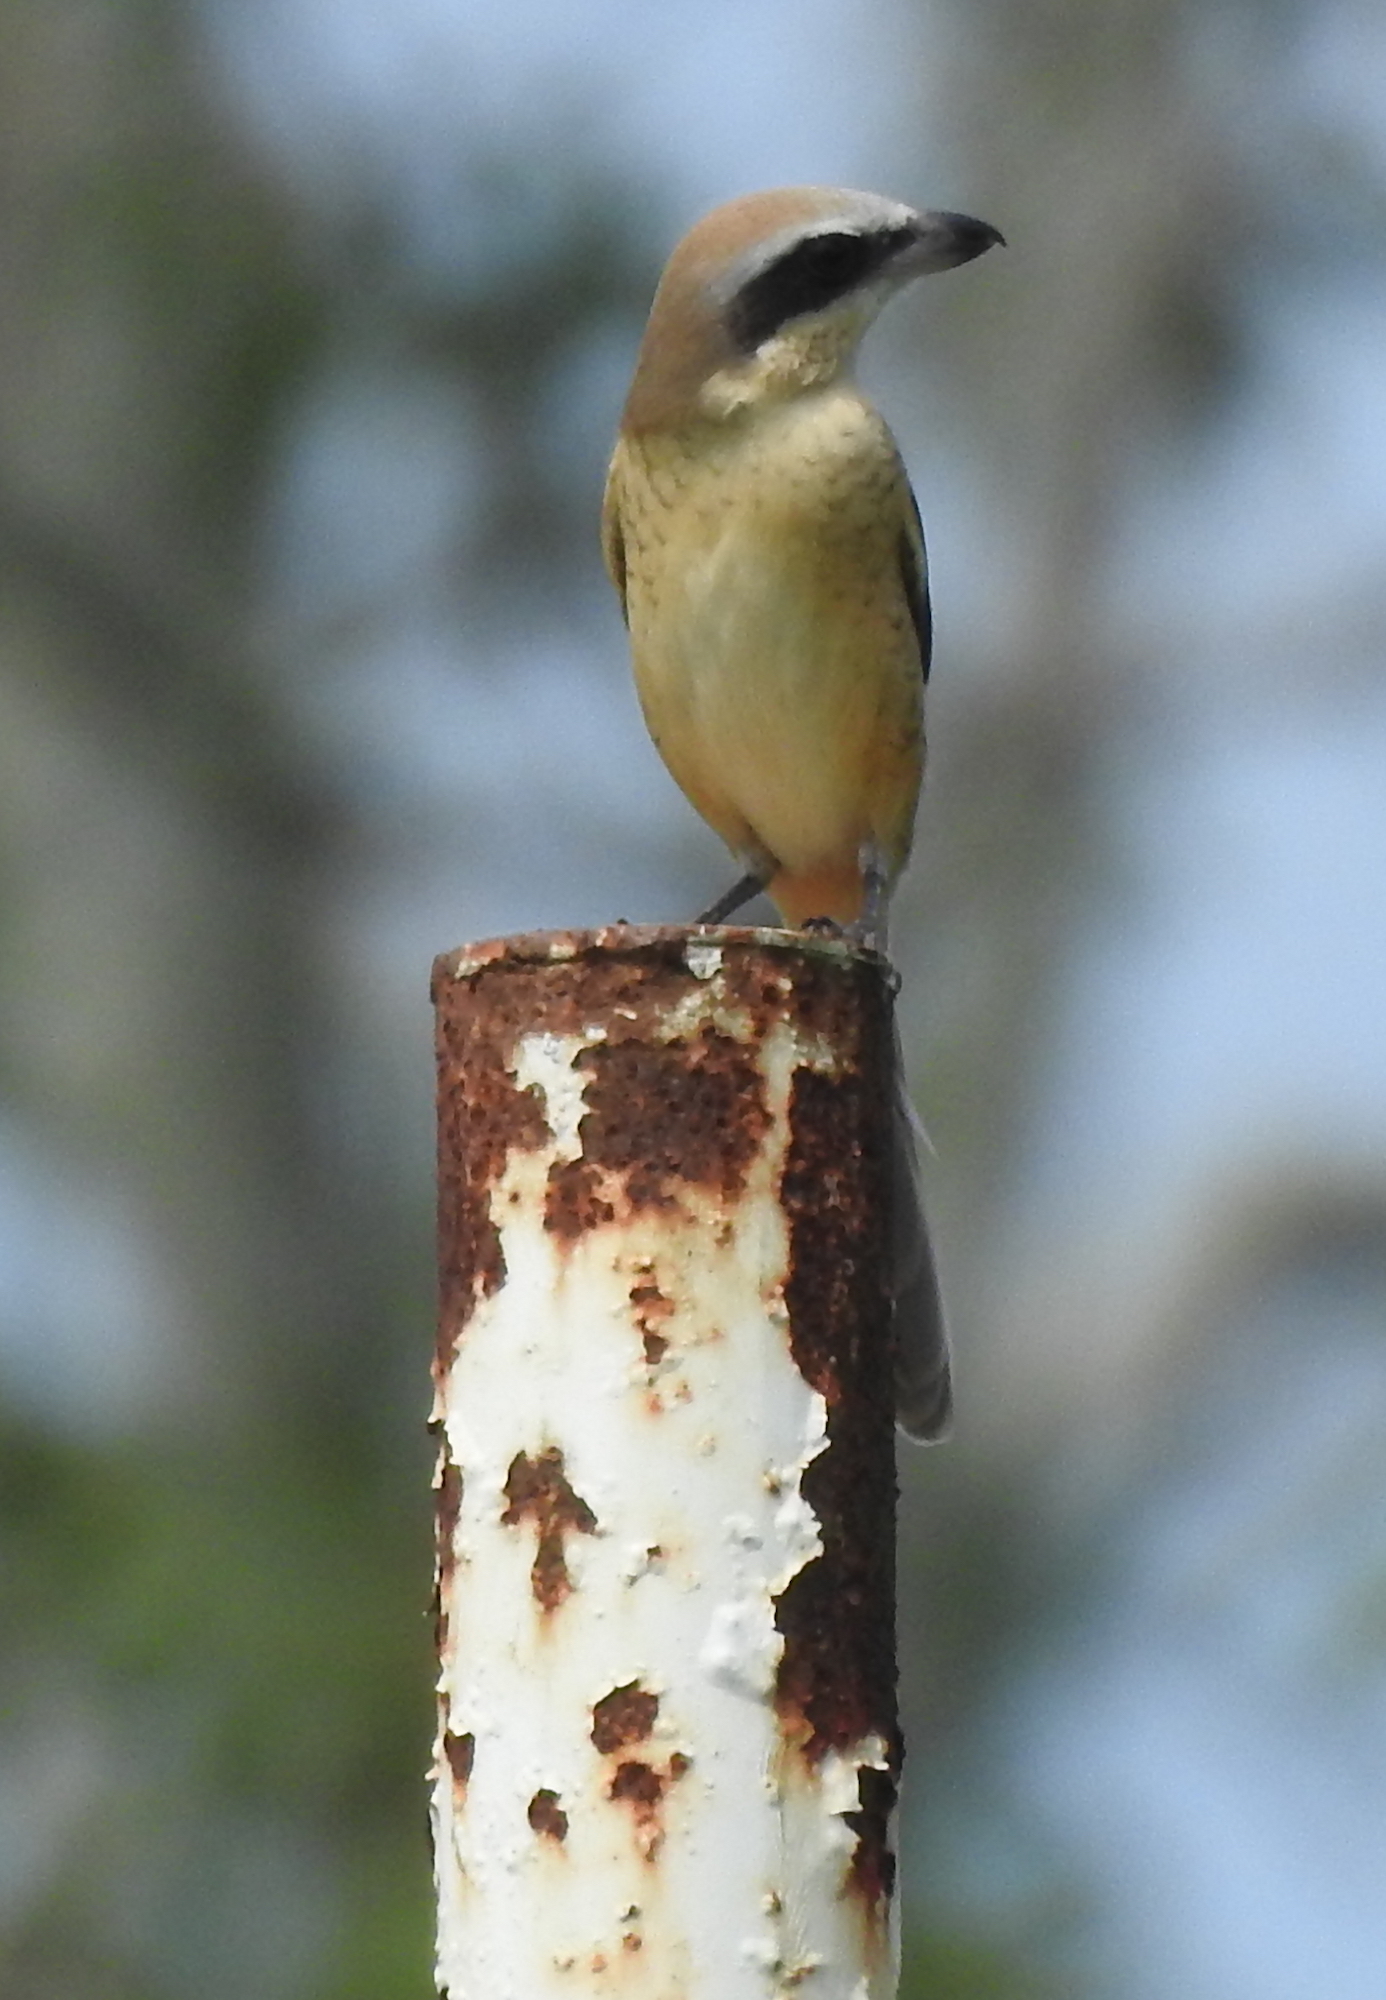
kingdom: Animalia
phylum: Chordata
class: Aves
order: Passeriformes
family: Laniidae
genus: Lanius
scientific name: Lanius cristatus
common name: Brown shrike
